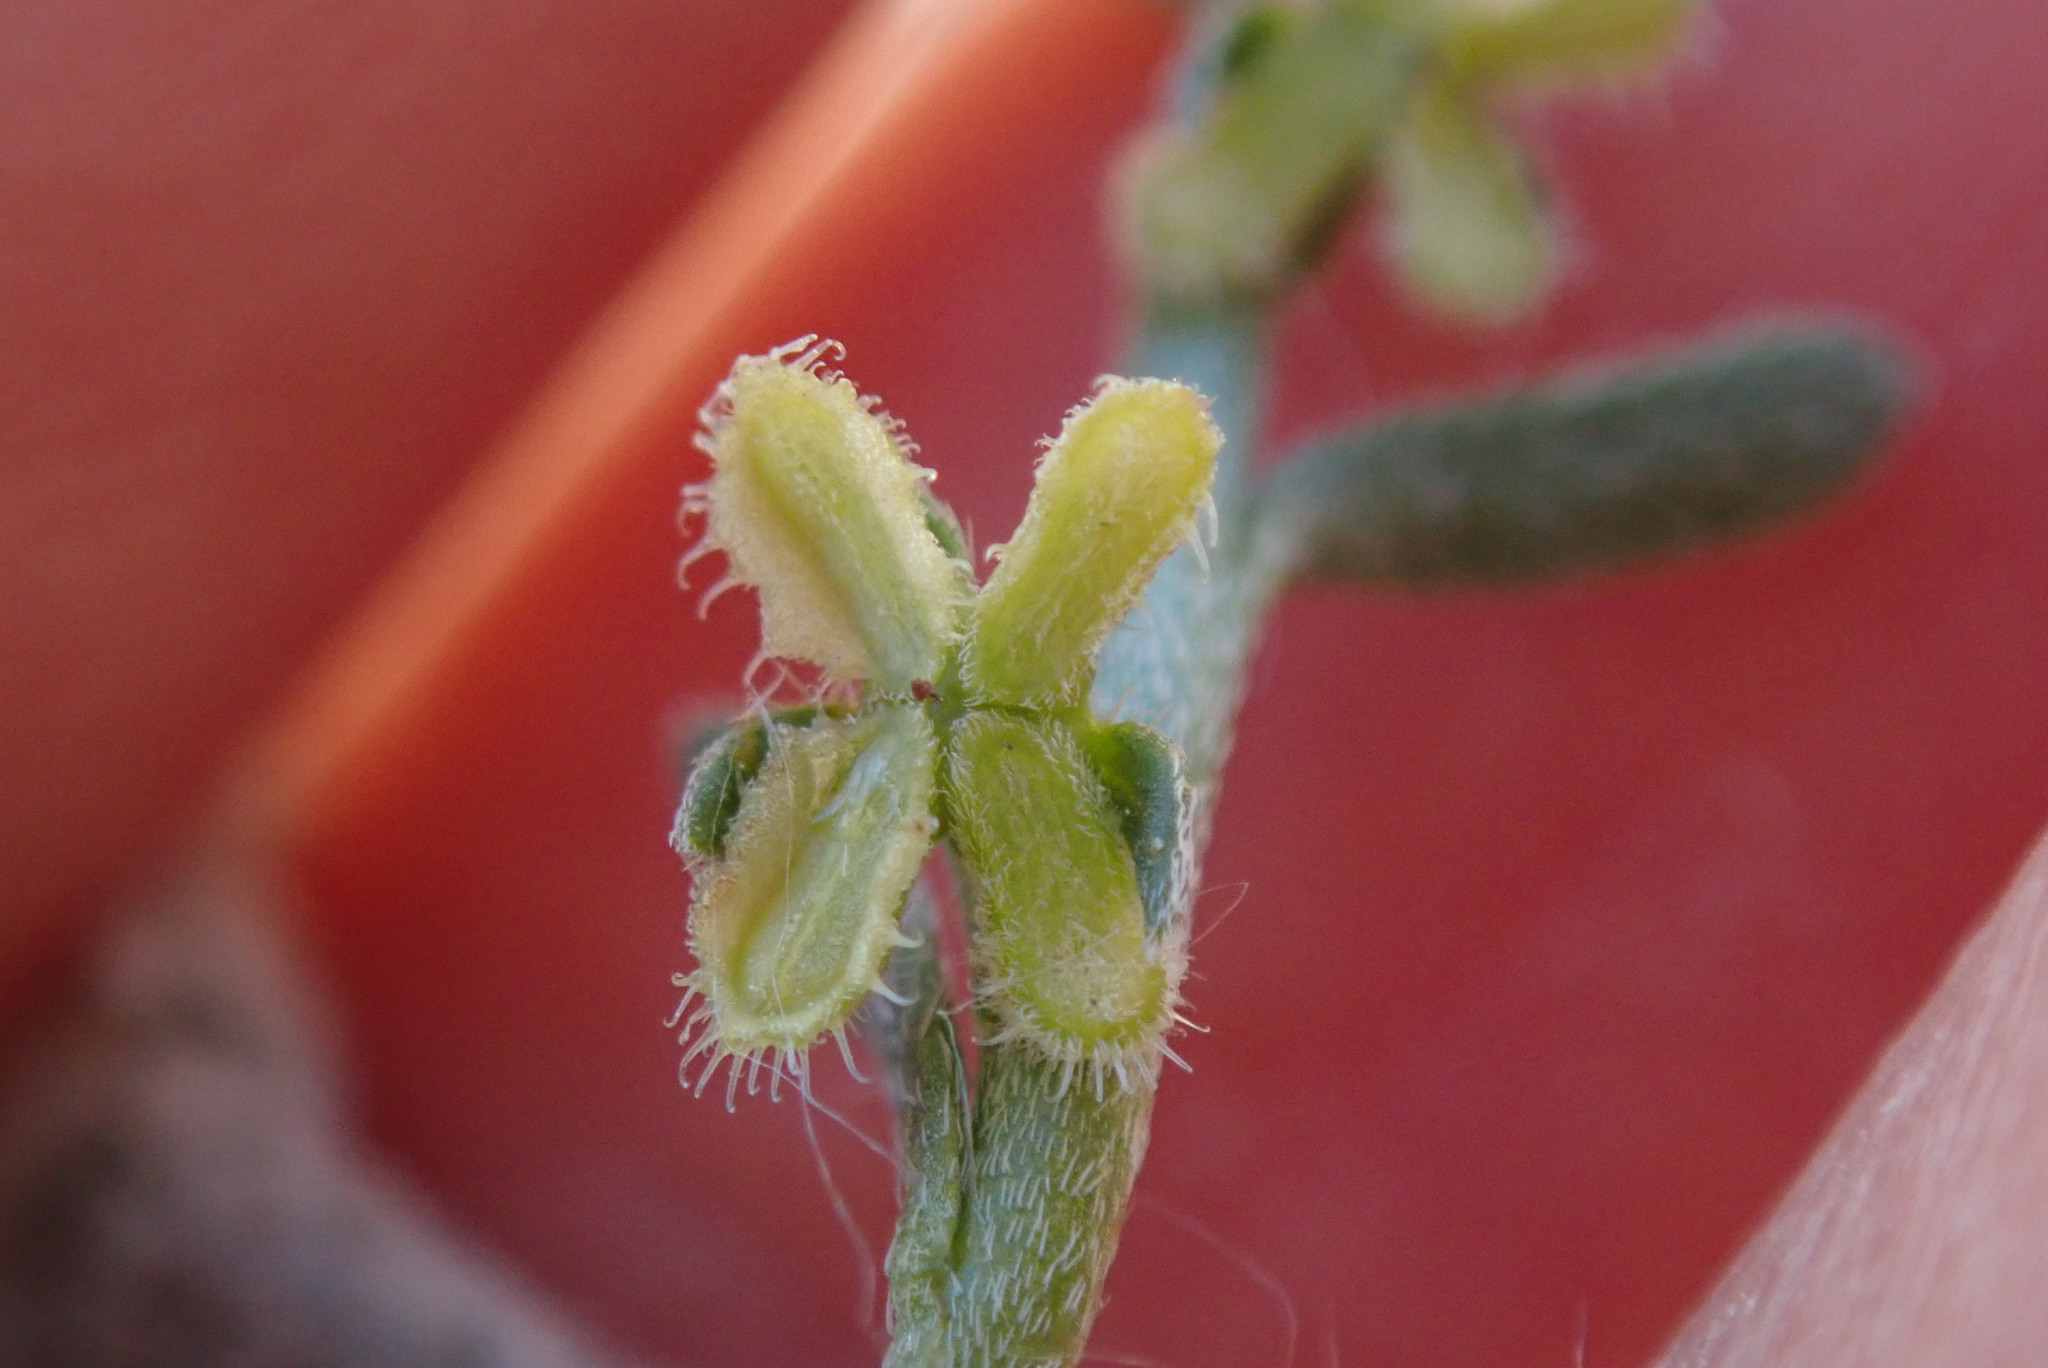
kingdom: Plantae
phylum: Tracheophyta
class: Magnoliopsida
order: Boraginales
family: Boraginaceae
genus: Pectocarya
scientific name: Pectocarya heterocarpa
